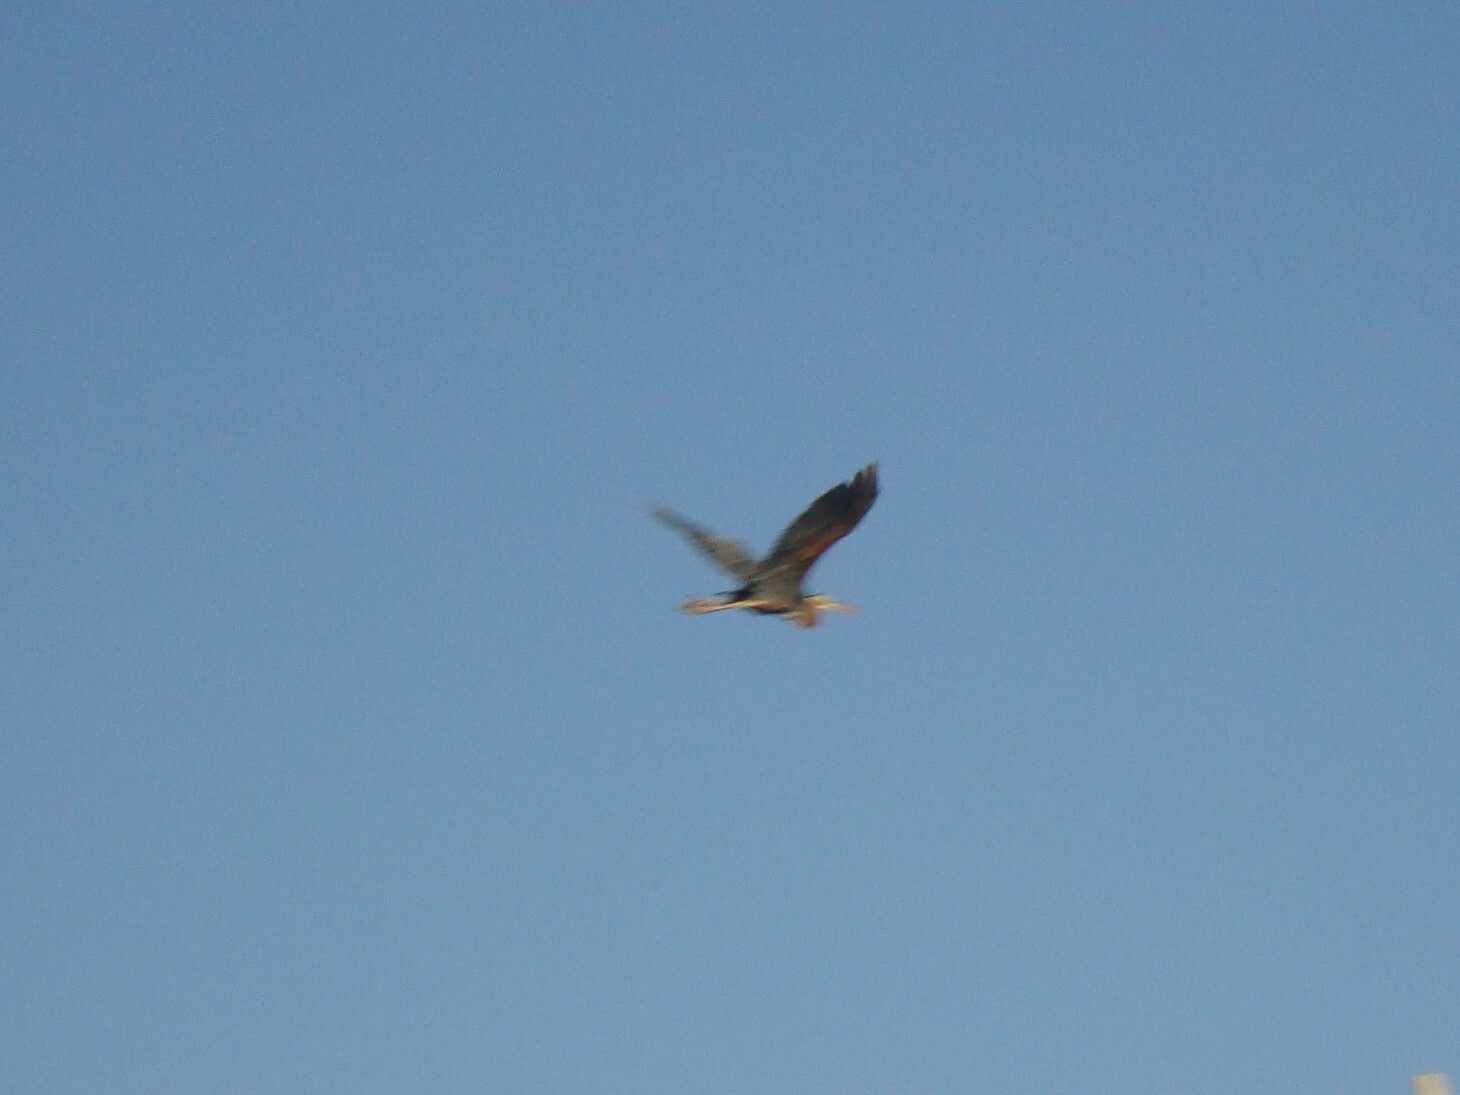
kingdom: Animalia
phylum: Chordata
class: Aves
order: Pelecaniformes
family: Ardeidae
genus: Ardea
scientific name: Ardea purpurea
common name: Purple heron
